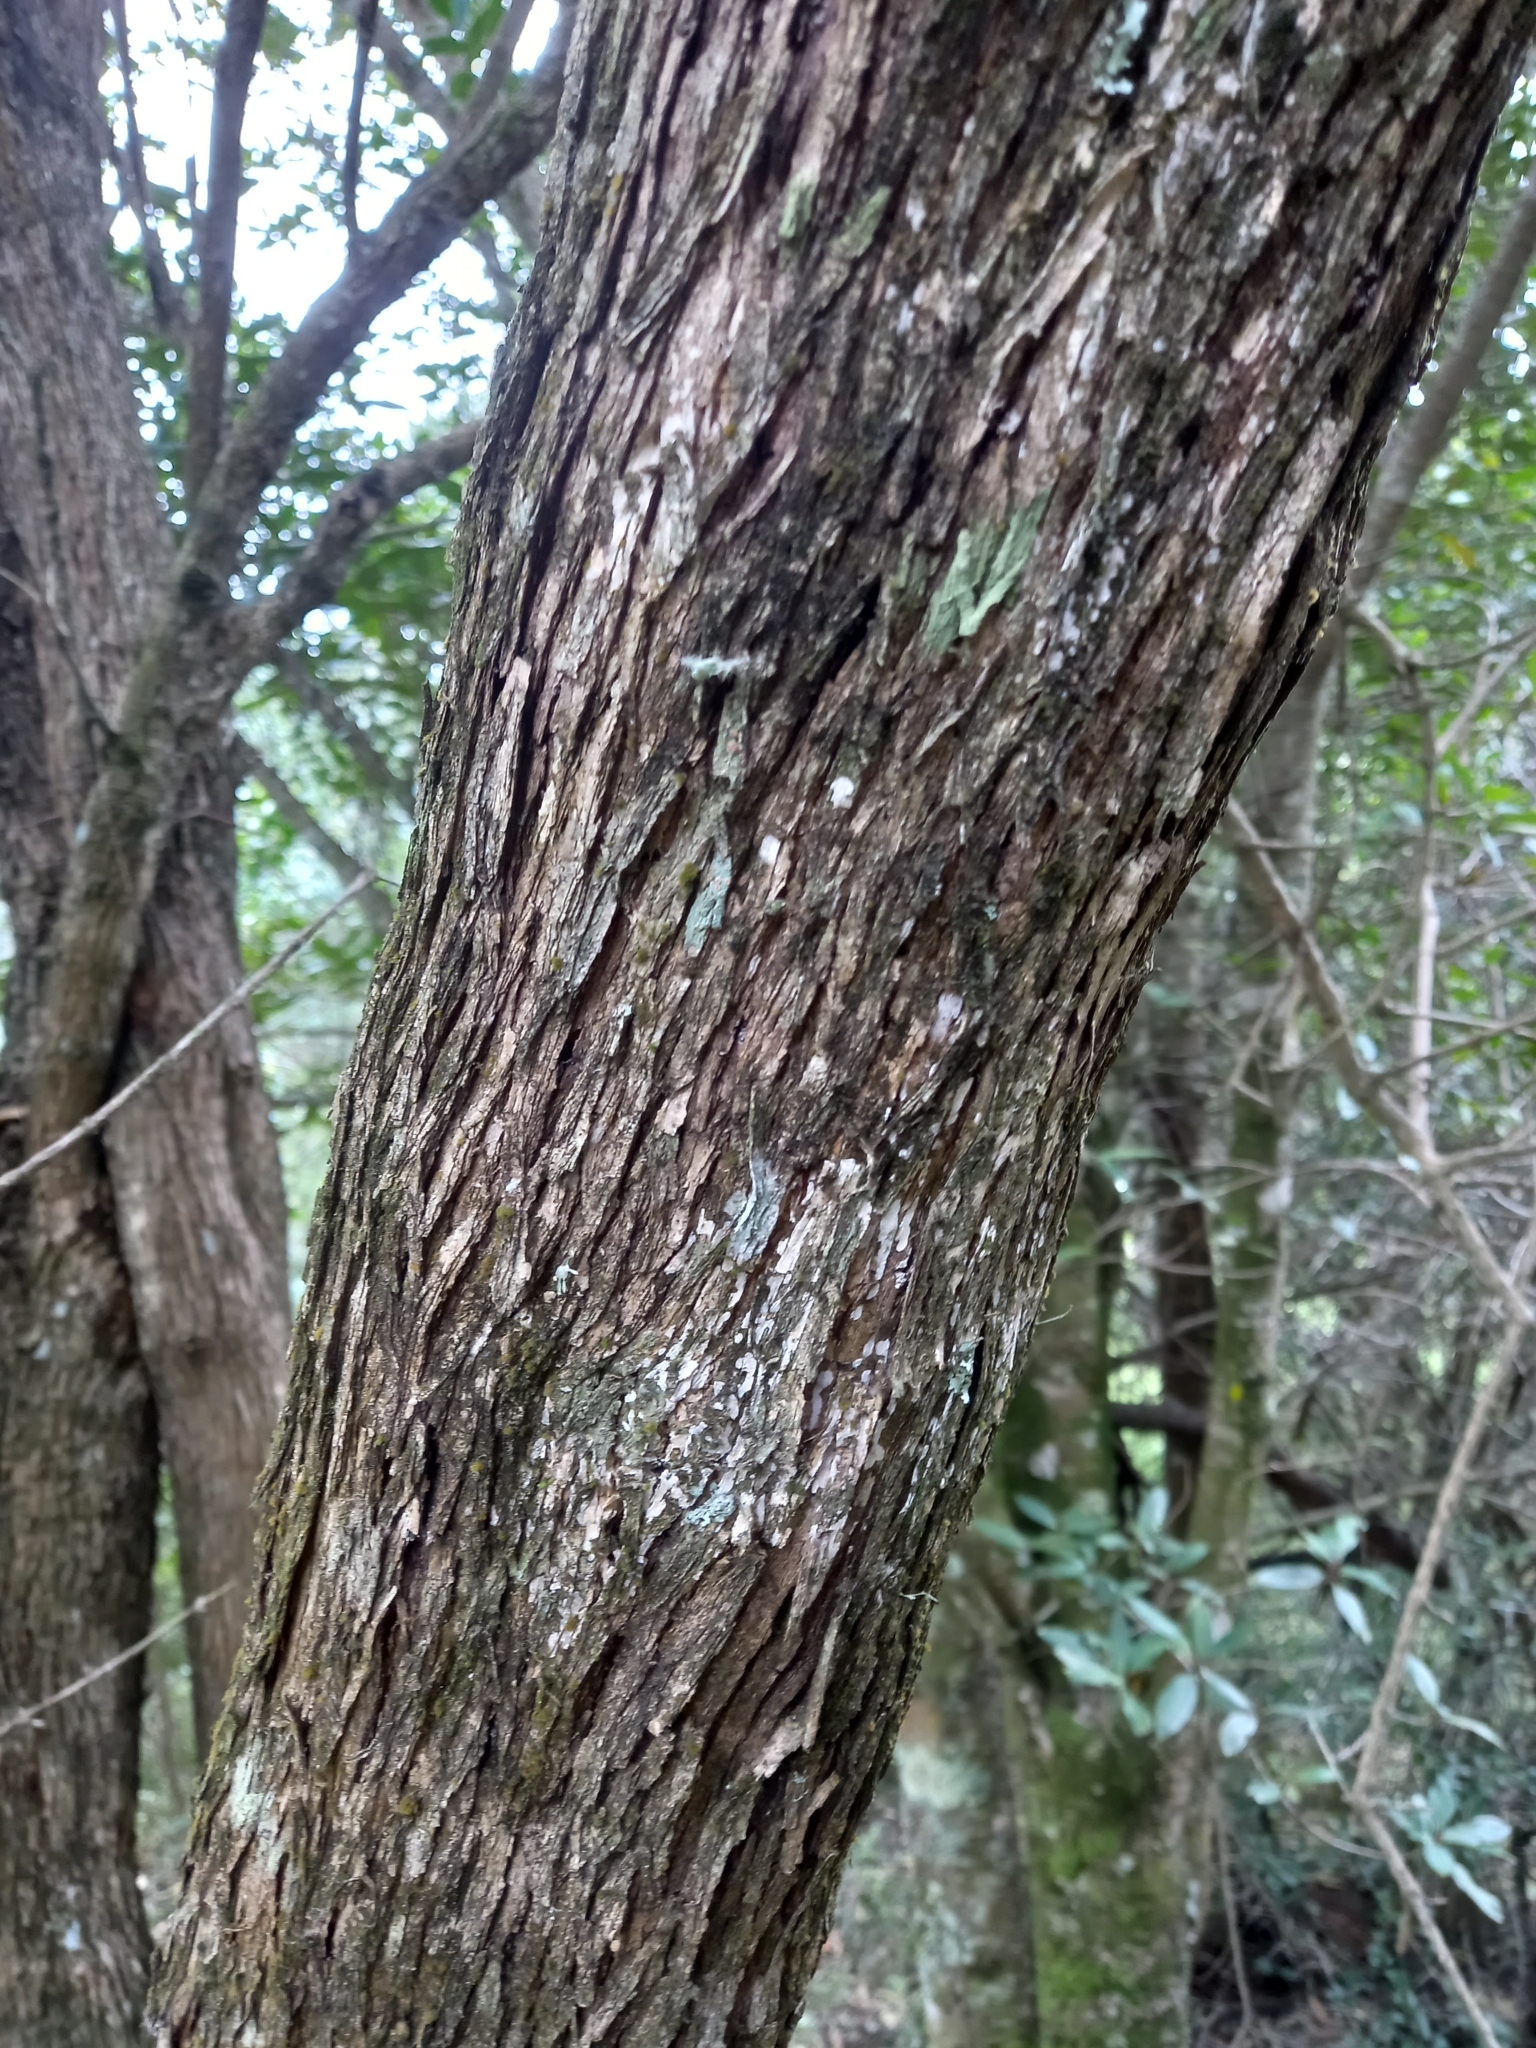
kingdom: Plantae
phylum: Tracheophyta
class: Magnoliopsida
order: Lamiales
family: Stilbaceae
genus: Halleria
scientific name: Halleria lucida
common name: Tree fuschia
